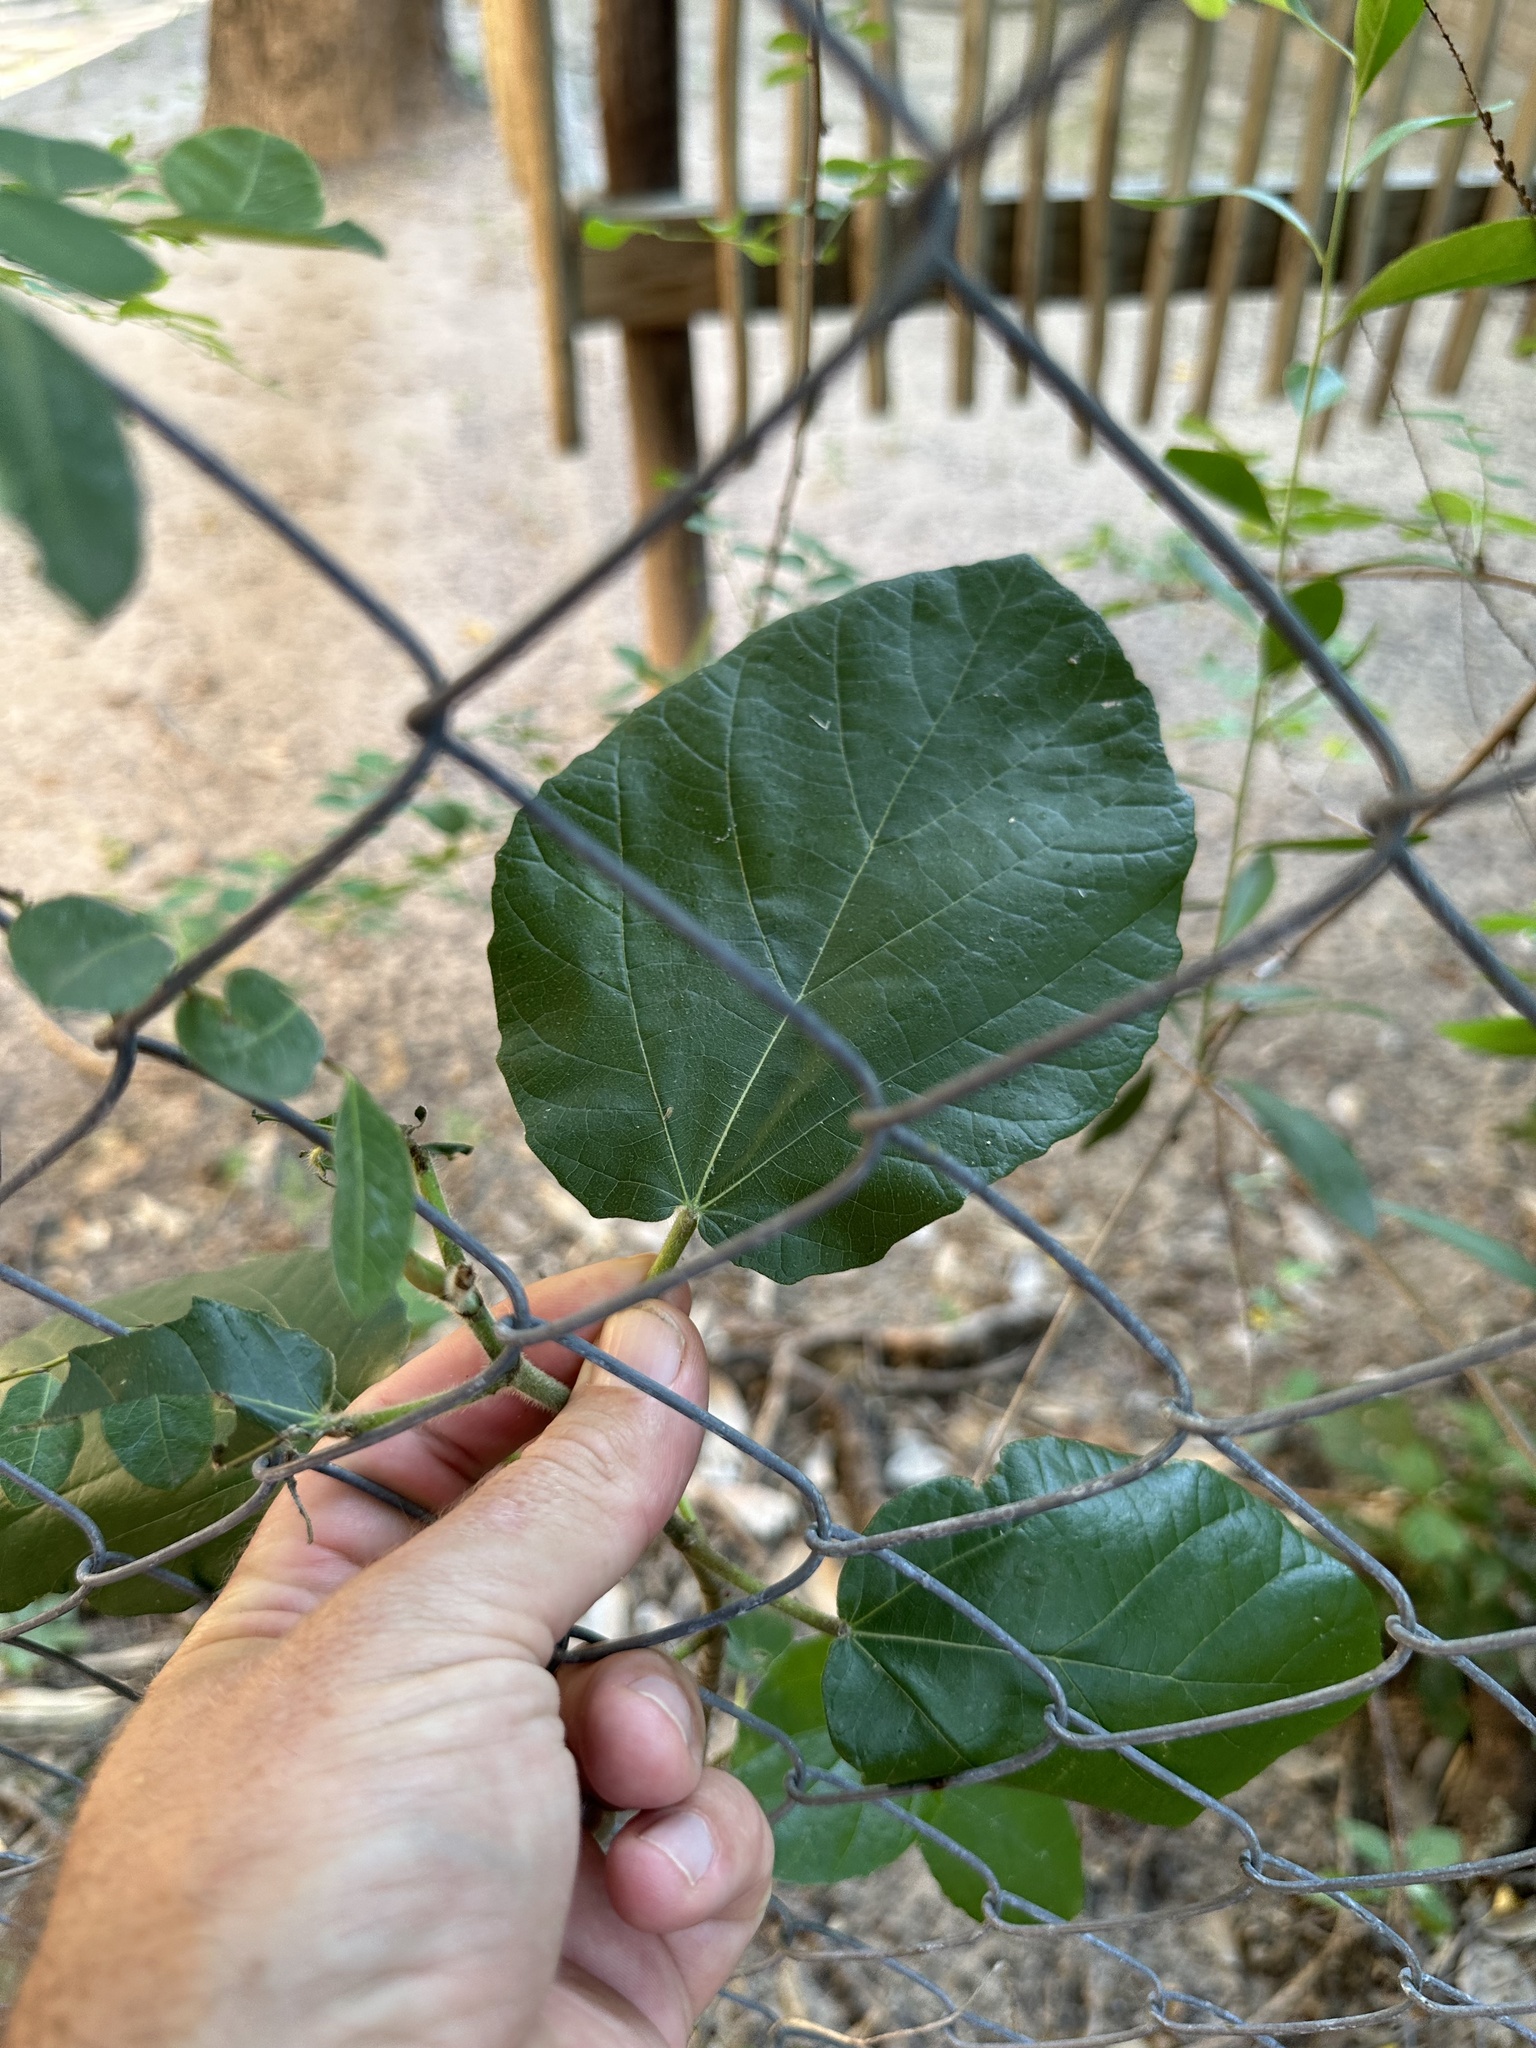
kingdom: Plantae
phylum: Tracheophyta
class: Magnoliopsida
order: Rosales
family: Moraceae
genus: Ficus
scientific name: Ficus sycomorus
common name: Sycomore
